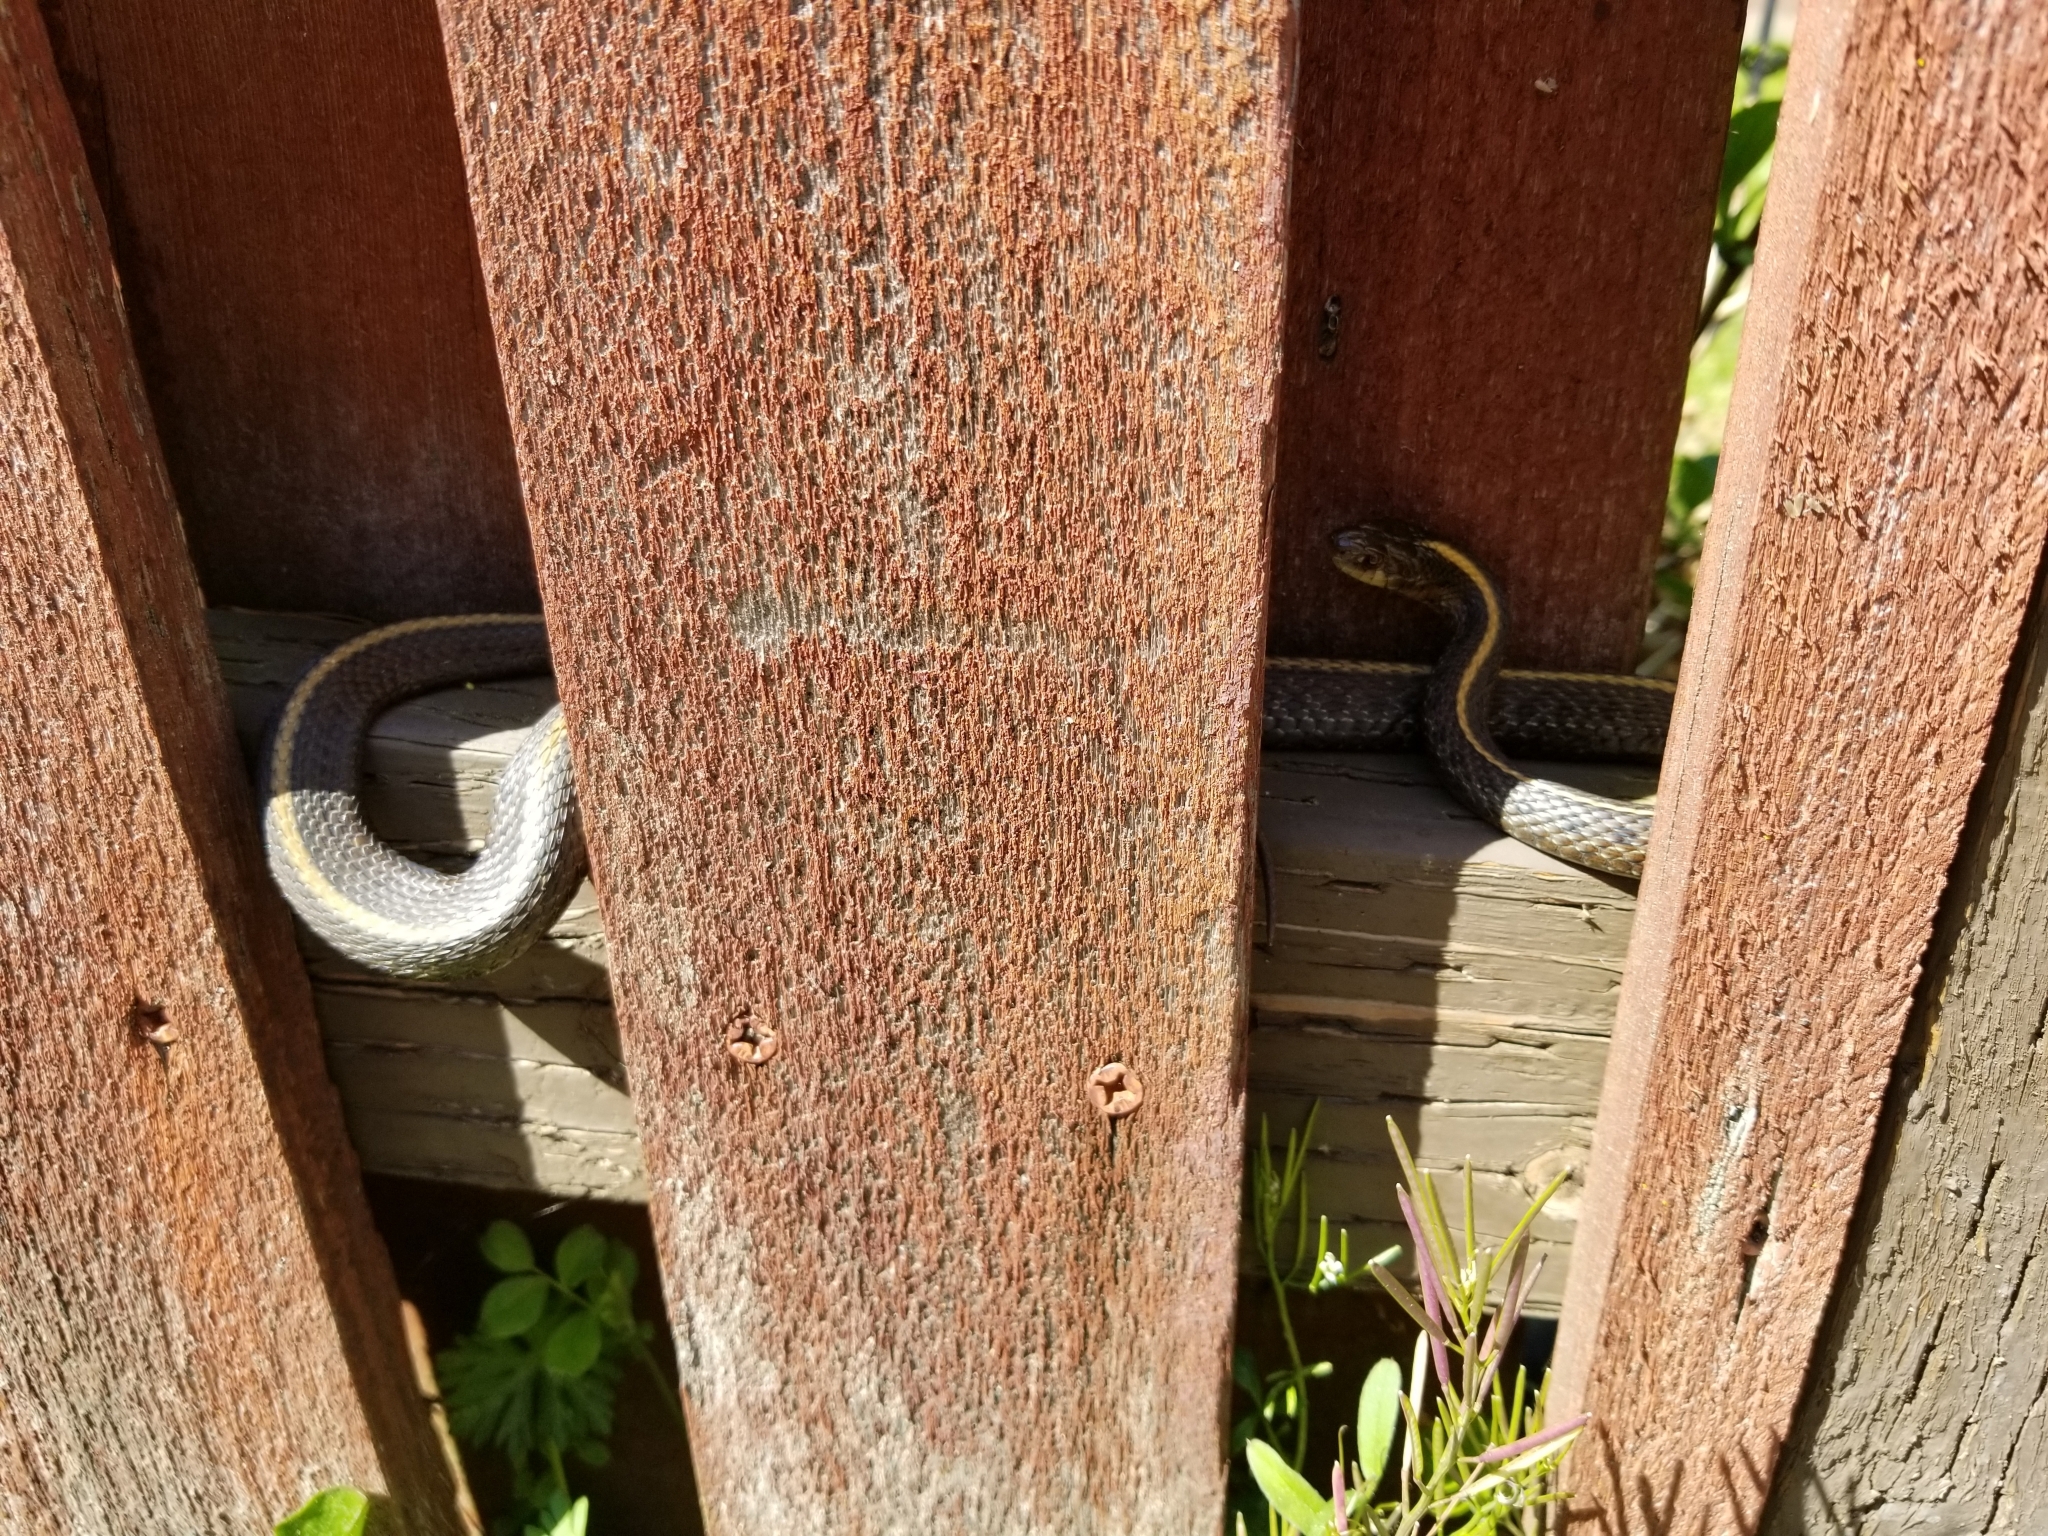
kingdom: Animalia
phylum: Chordata
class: Squamata
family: Colubridae
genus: Thamnophis
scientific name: Thamnophis ordinoides
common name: Northwestern garter snake
